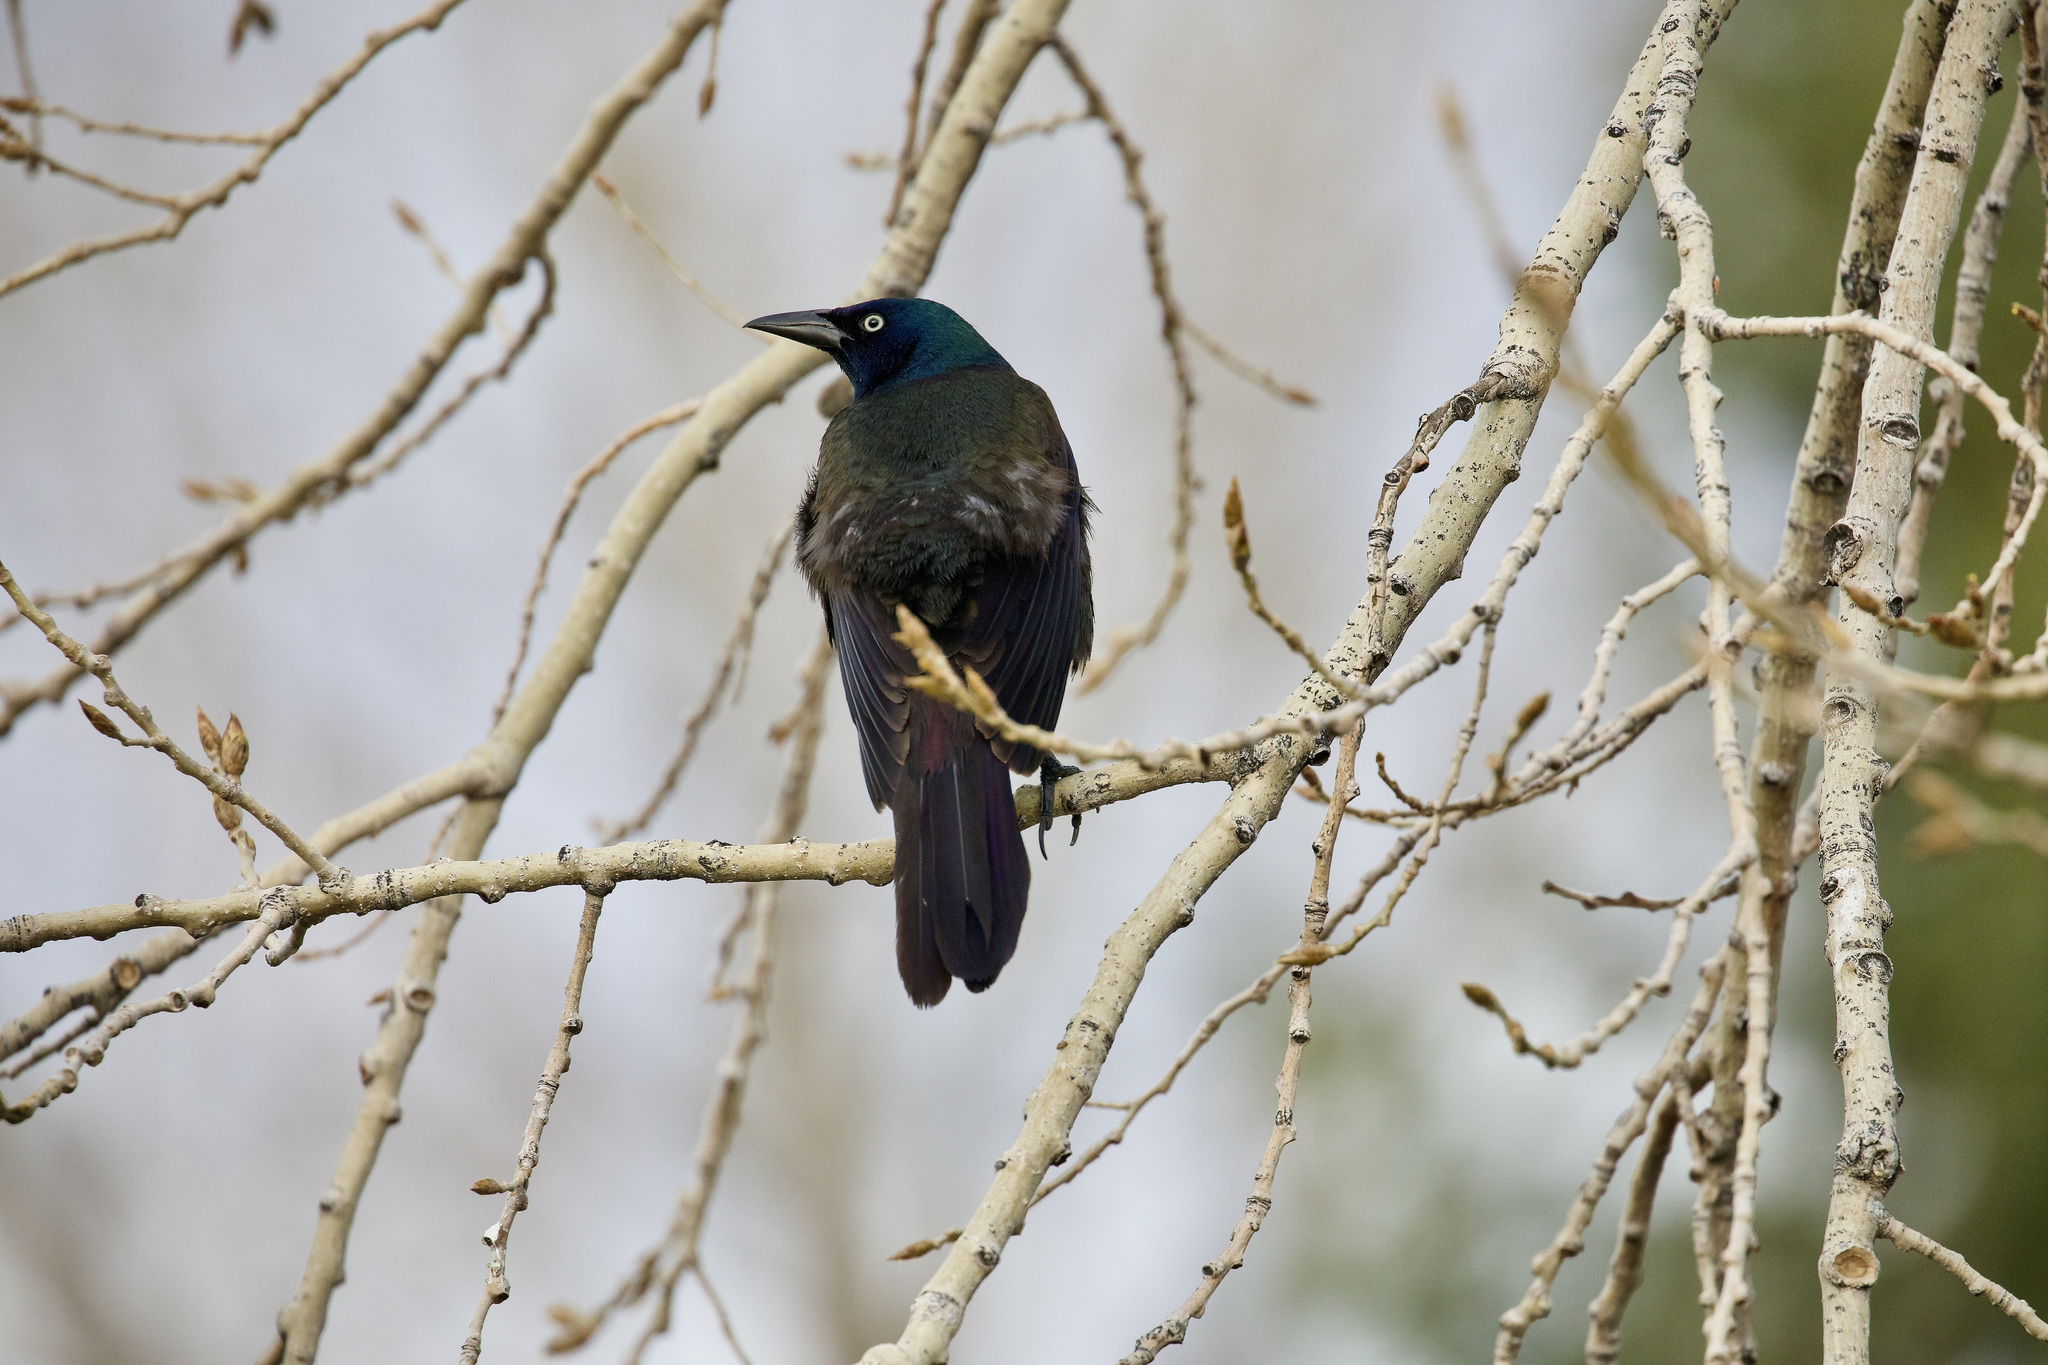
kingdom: Animalia
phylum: Chordata
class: Aves
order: Passeriformes
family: Icteridae
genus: Quiscalus
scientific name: Quiscalus quiscula
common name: Common grackle
